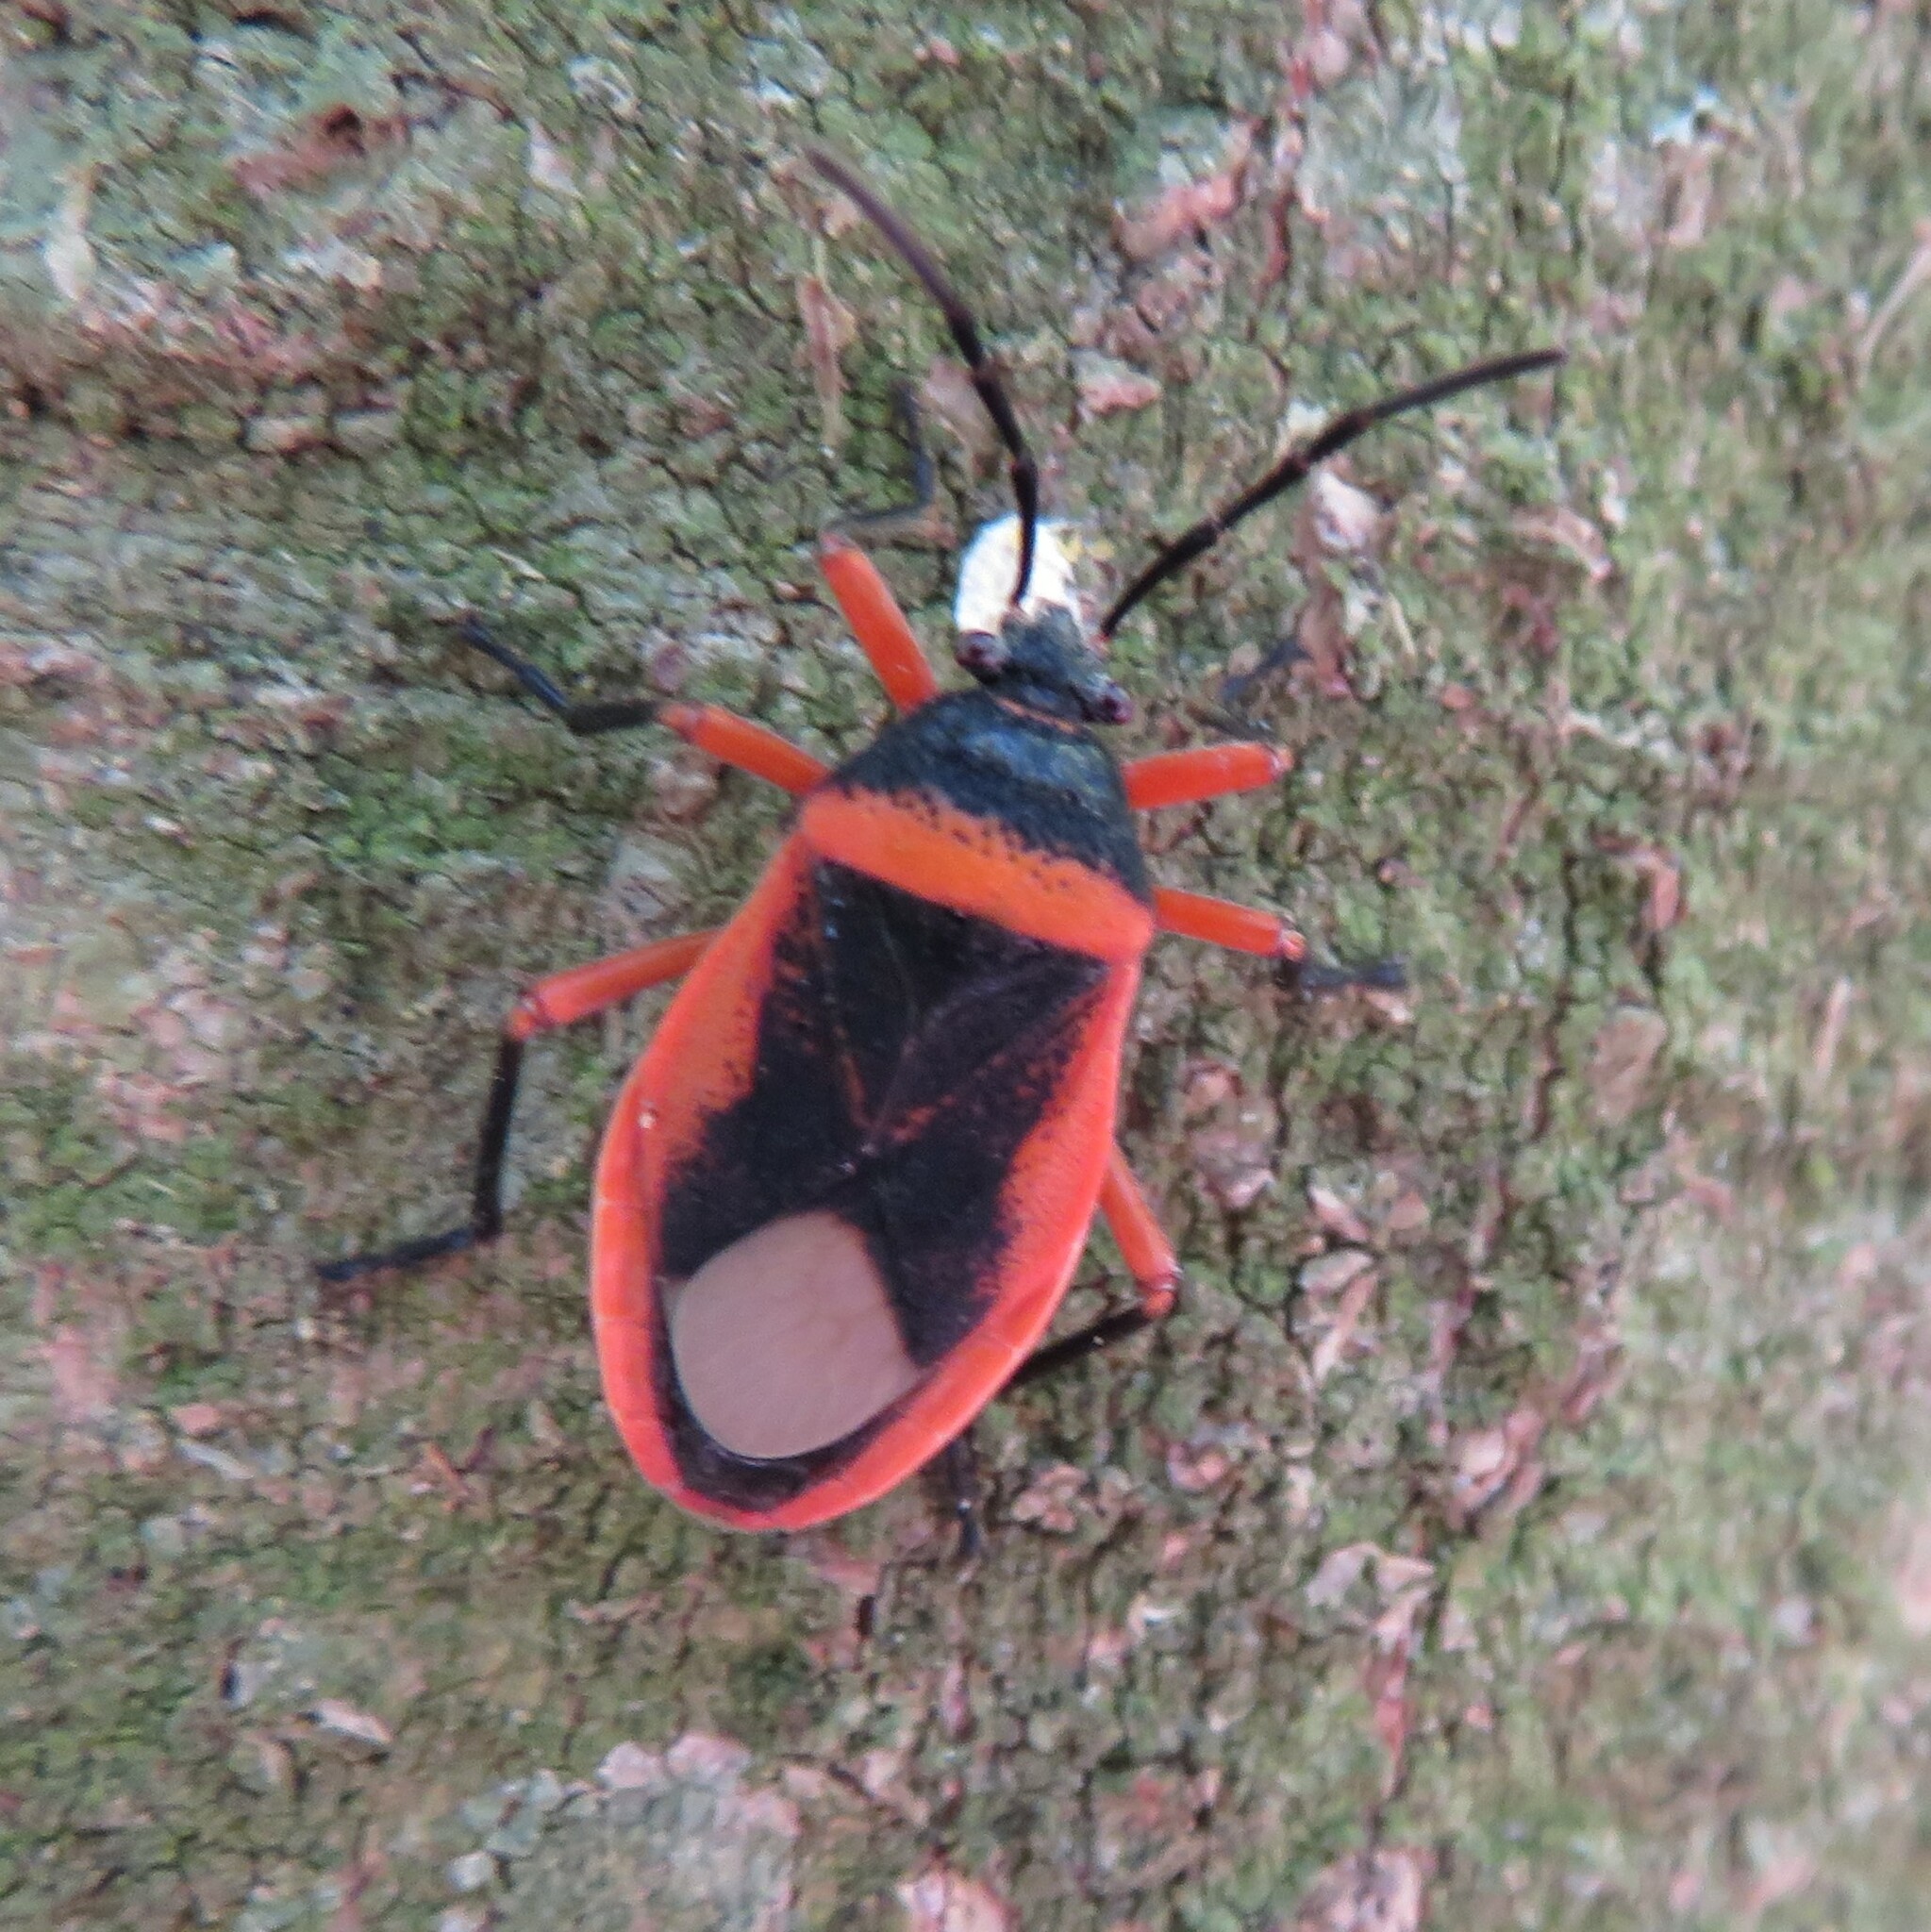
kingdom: Animalia
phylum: Arthropoda
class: Insecta
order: Hemiptera
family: Largidae
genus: Largus
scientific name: Largus obovatus
